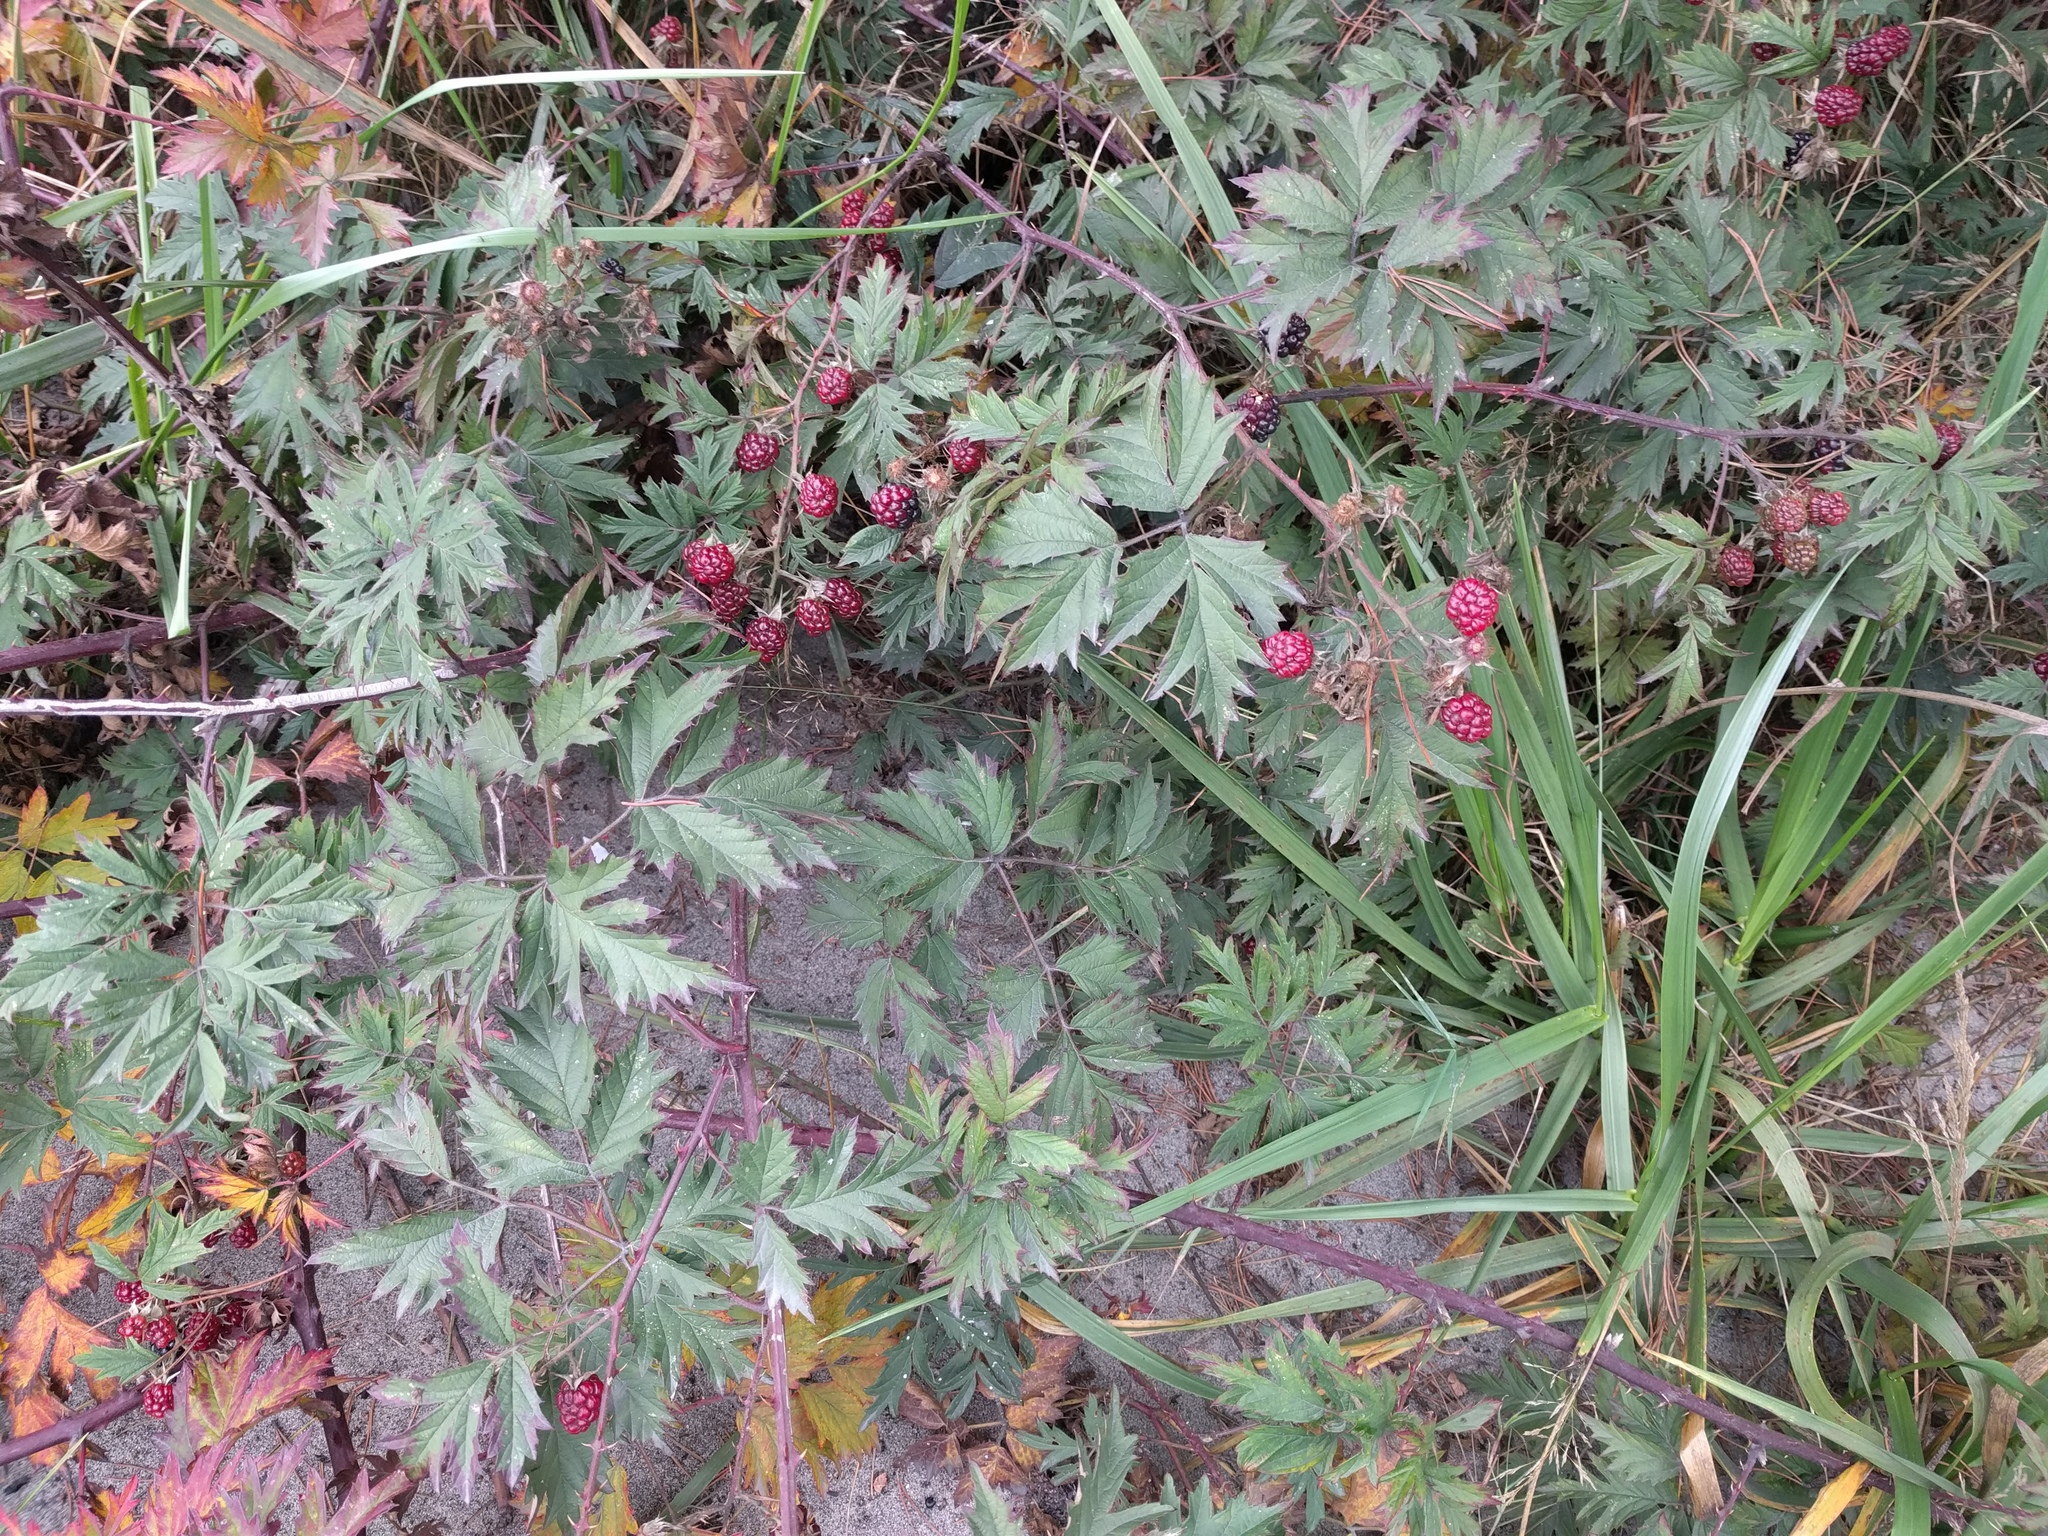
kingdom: Plantae
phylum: Tracheophyta
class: Magnoliopsida
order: Rosales
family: Rosaceae
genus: Rubus
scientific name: Rubus laciniatus
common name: Evergreen blackberry
